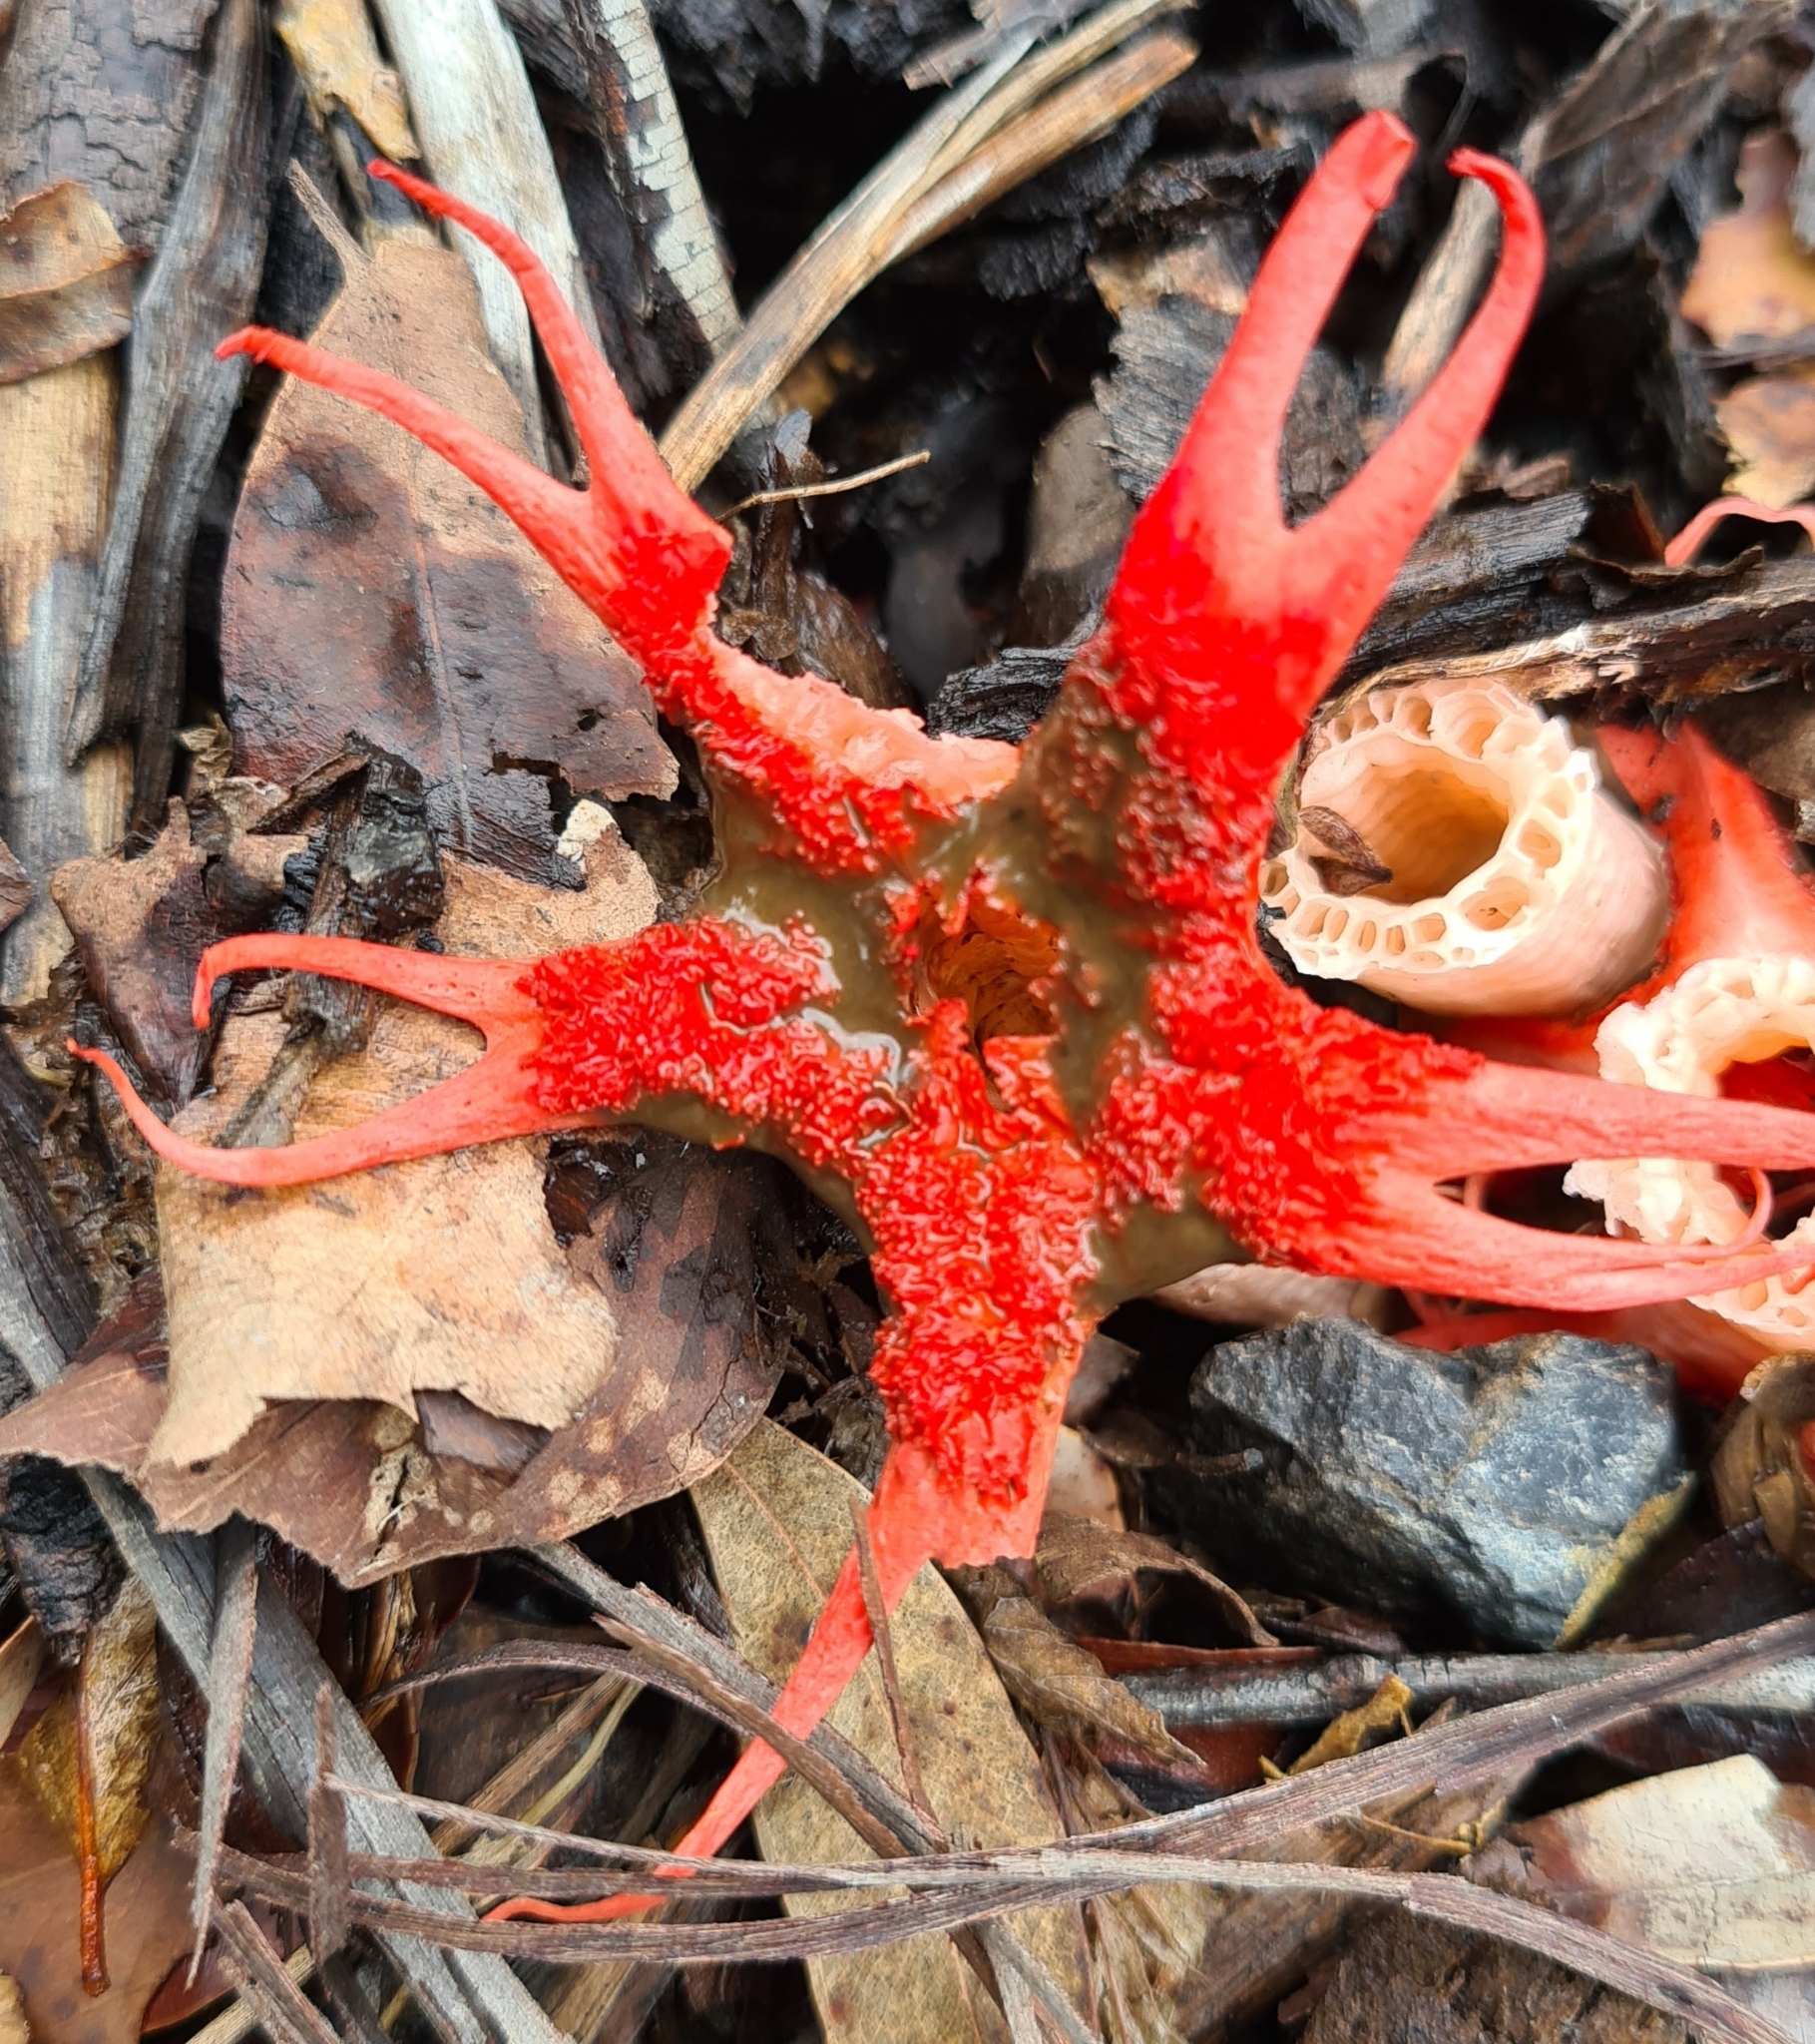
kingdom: Fungi
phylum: Basidiomycota
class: Agaricomycetes
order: Phallales
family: Phallaceae
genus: Aseroe
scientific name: Aseroe rubra
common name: Starfish fungus
